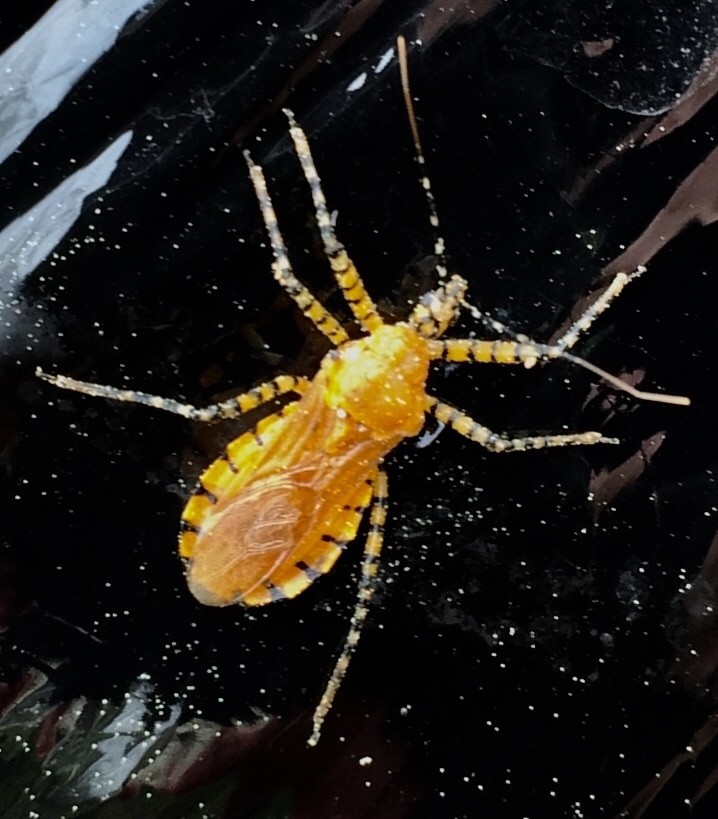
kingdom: Animalia
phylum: Arthropoda
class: Insecta
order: Hemiptera
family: Reduviidae
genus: Pselliopus
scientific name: Pselliopus barberi
